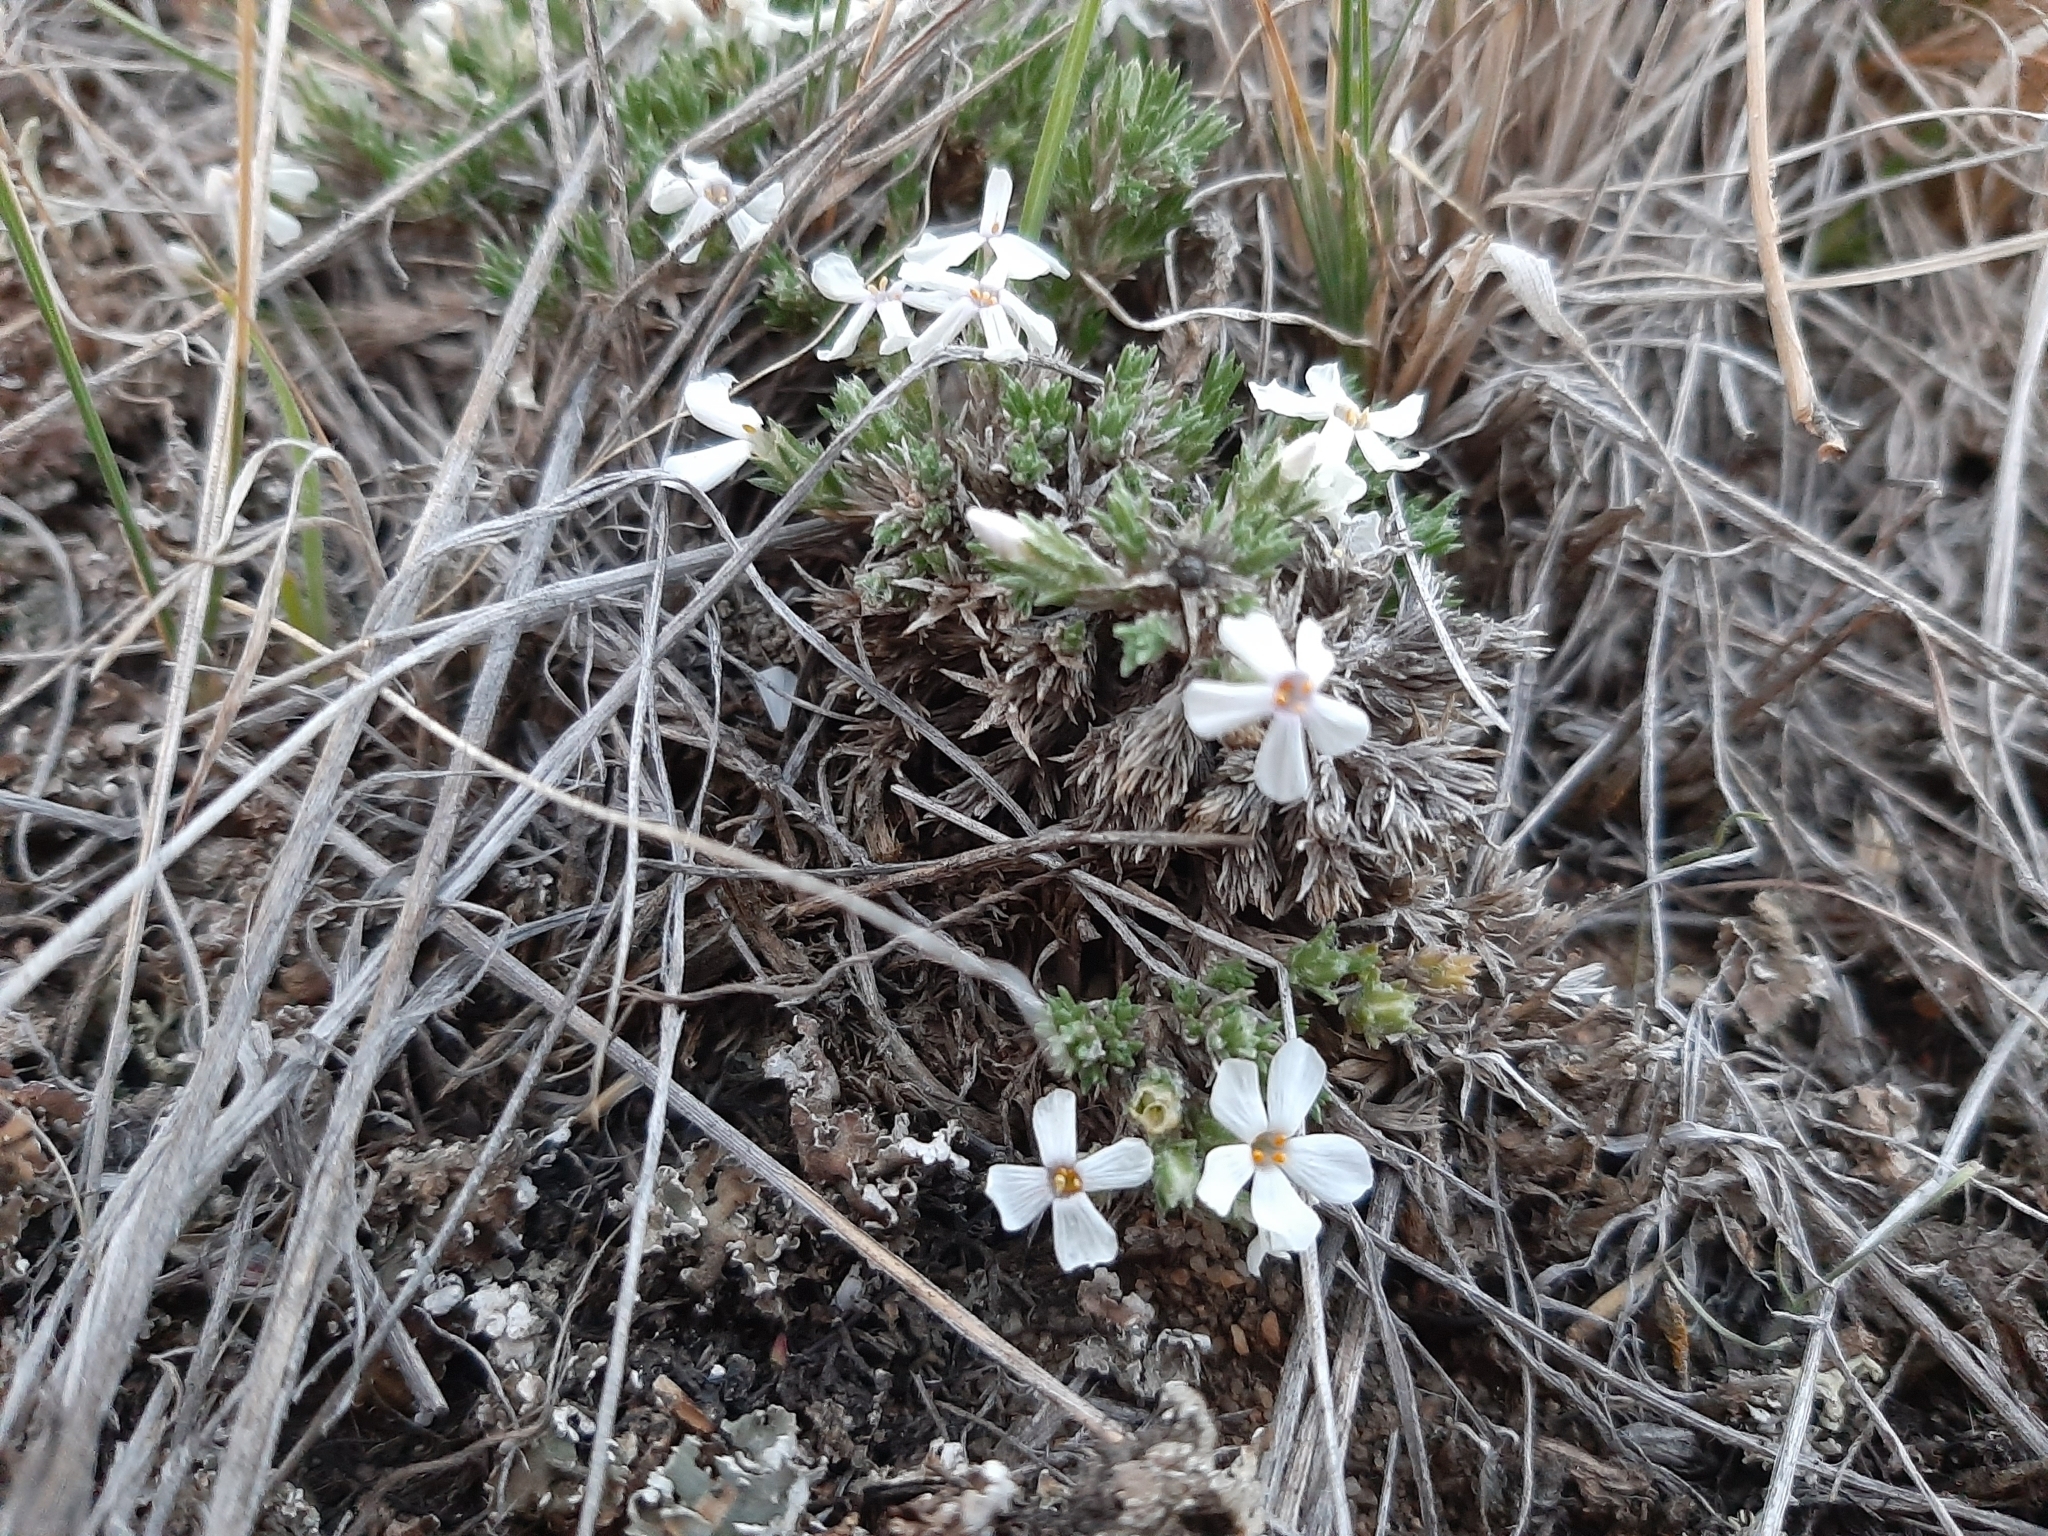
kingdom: Plantae
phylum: Tracheophyta
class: Magnoliopsida
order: Ericales
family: Polemoniaceae
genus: Phlox
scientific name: Phlox hoodii
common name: Moss phlox
